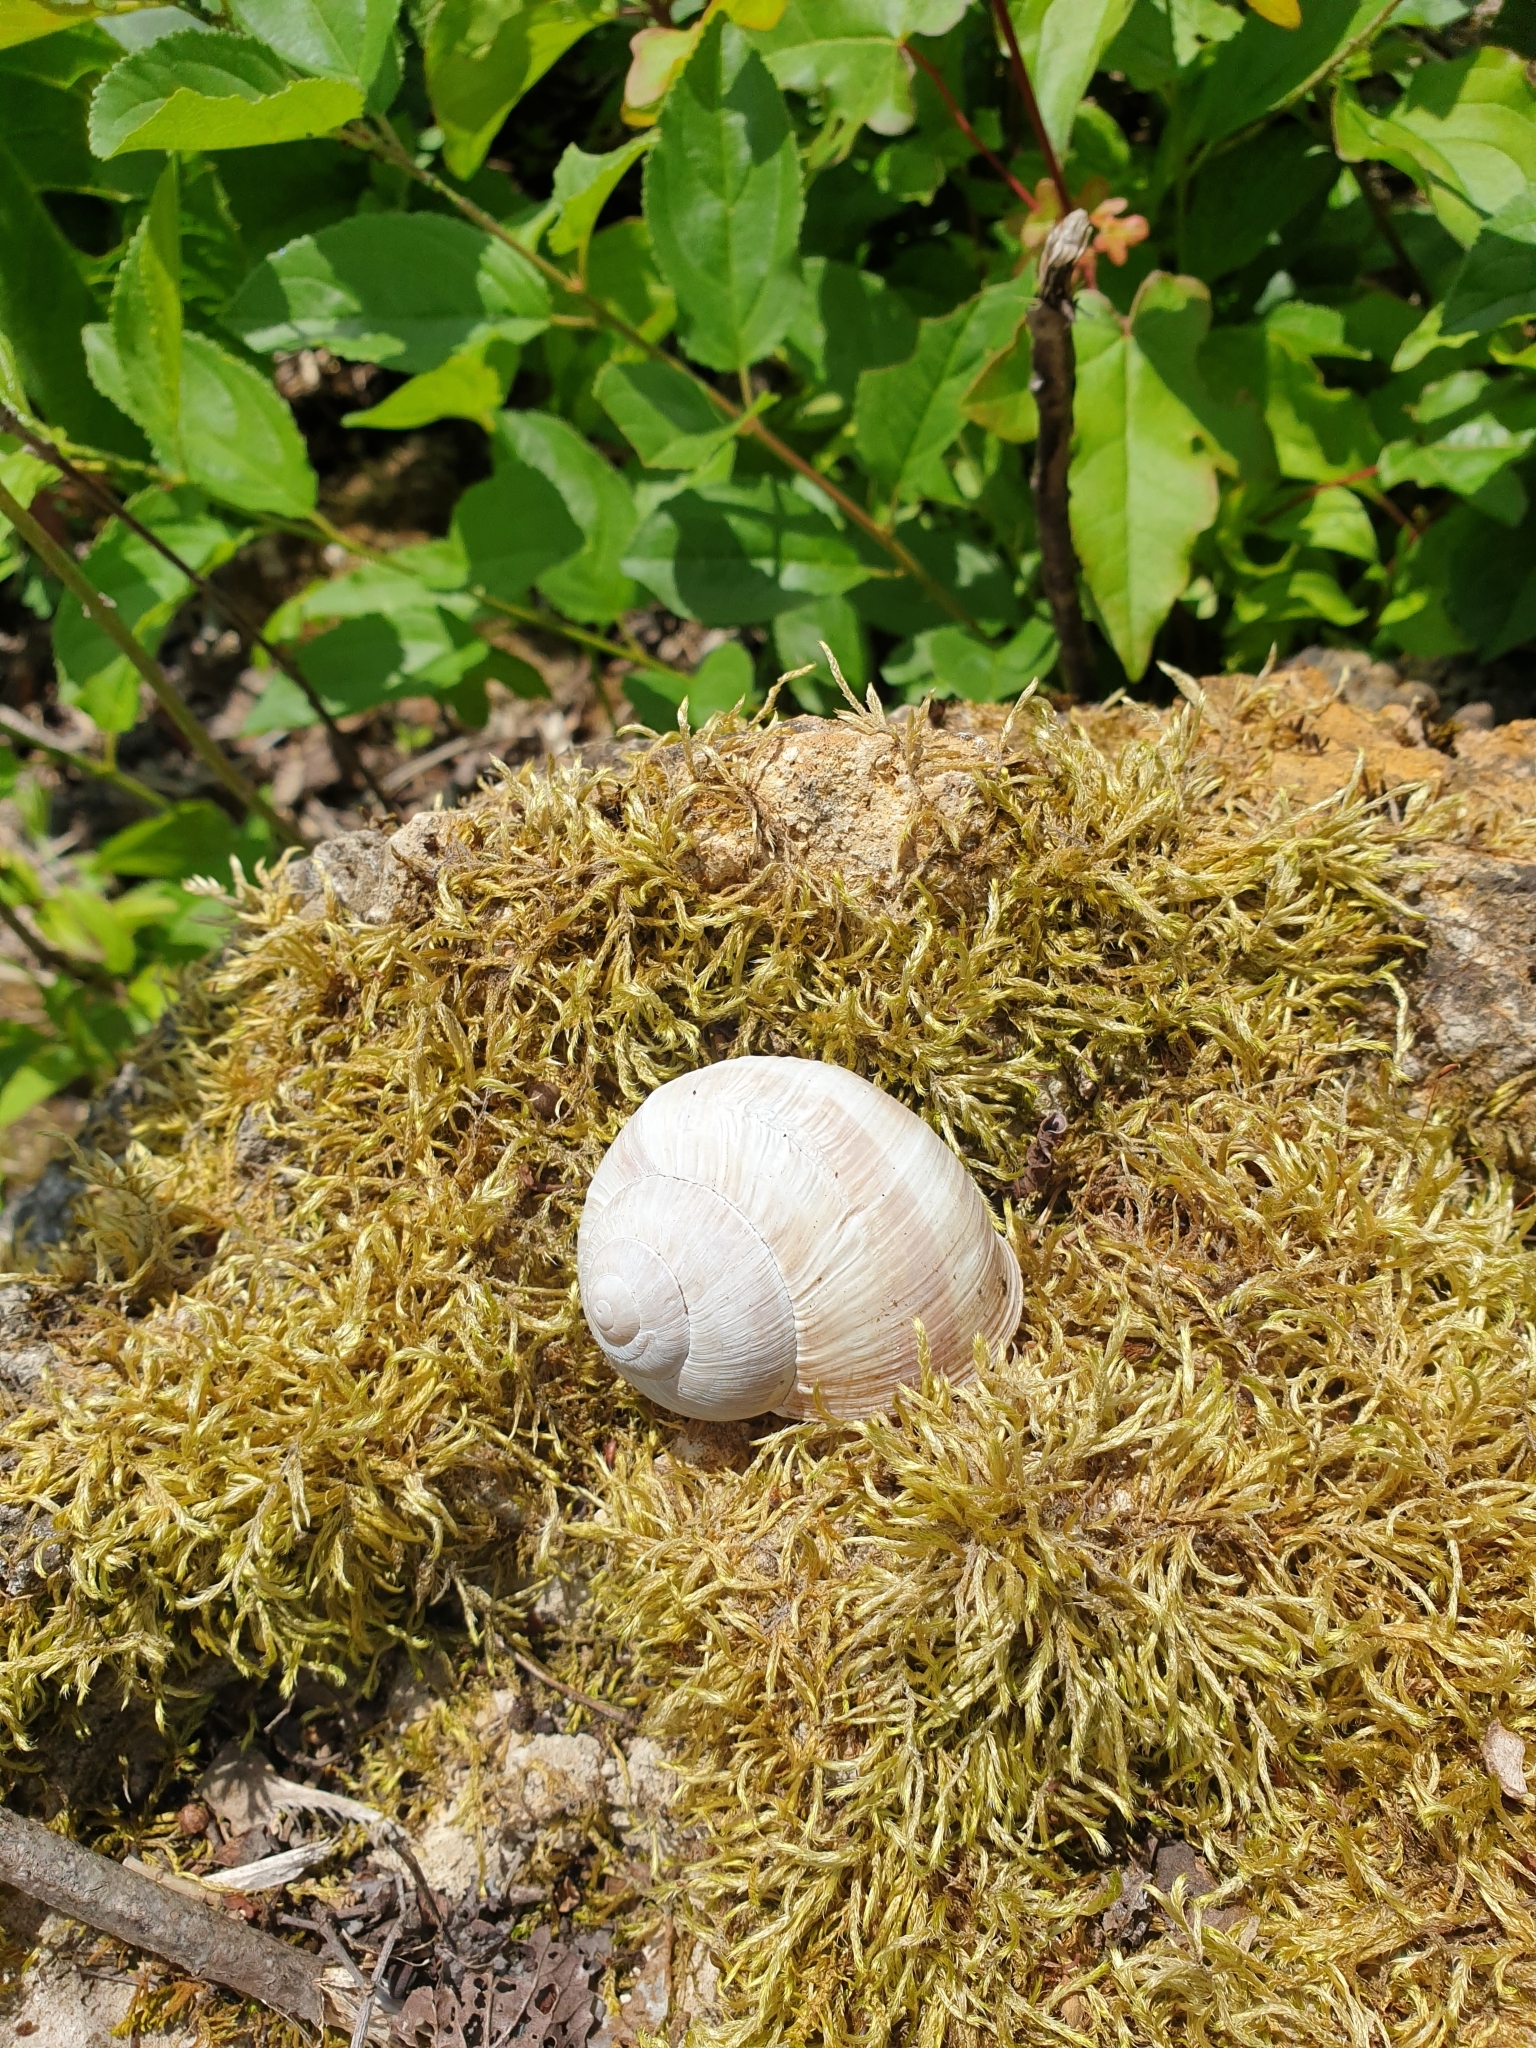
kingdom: Animalia
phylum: Mollusca
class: Gastropoda
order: Stylommatophora
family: Helicidae
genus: Helix
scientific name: Helix pomatia
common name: Roman snail
